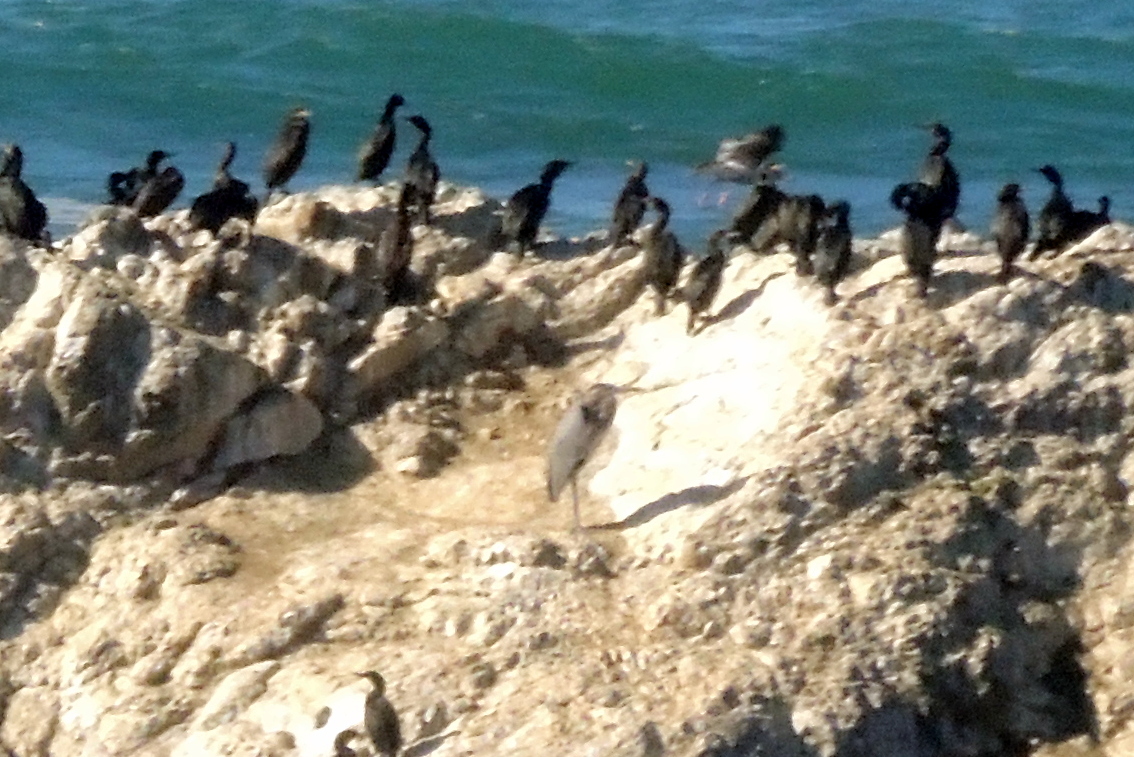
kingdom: Animalia
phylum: Chordata
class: Aves
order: Pelecaniformes
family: Ardeidae
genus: Ardea
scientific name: Ardea herodias
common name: Great blue heron
